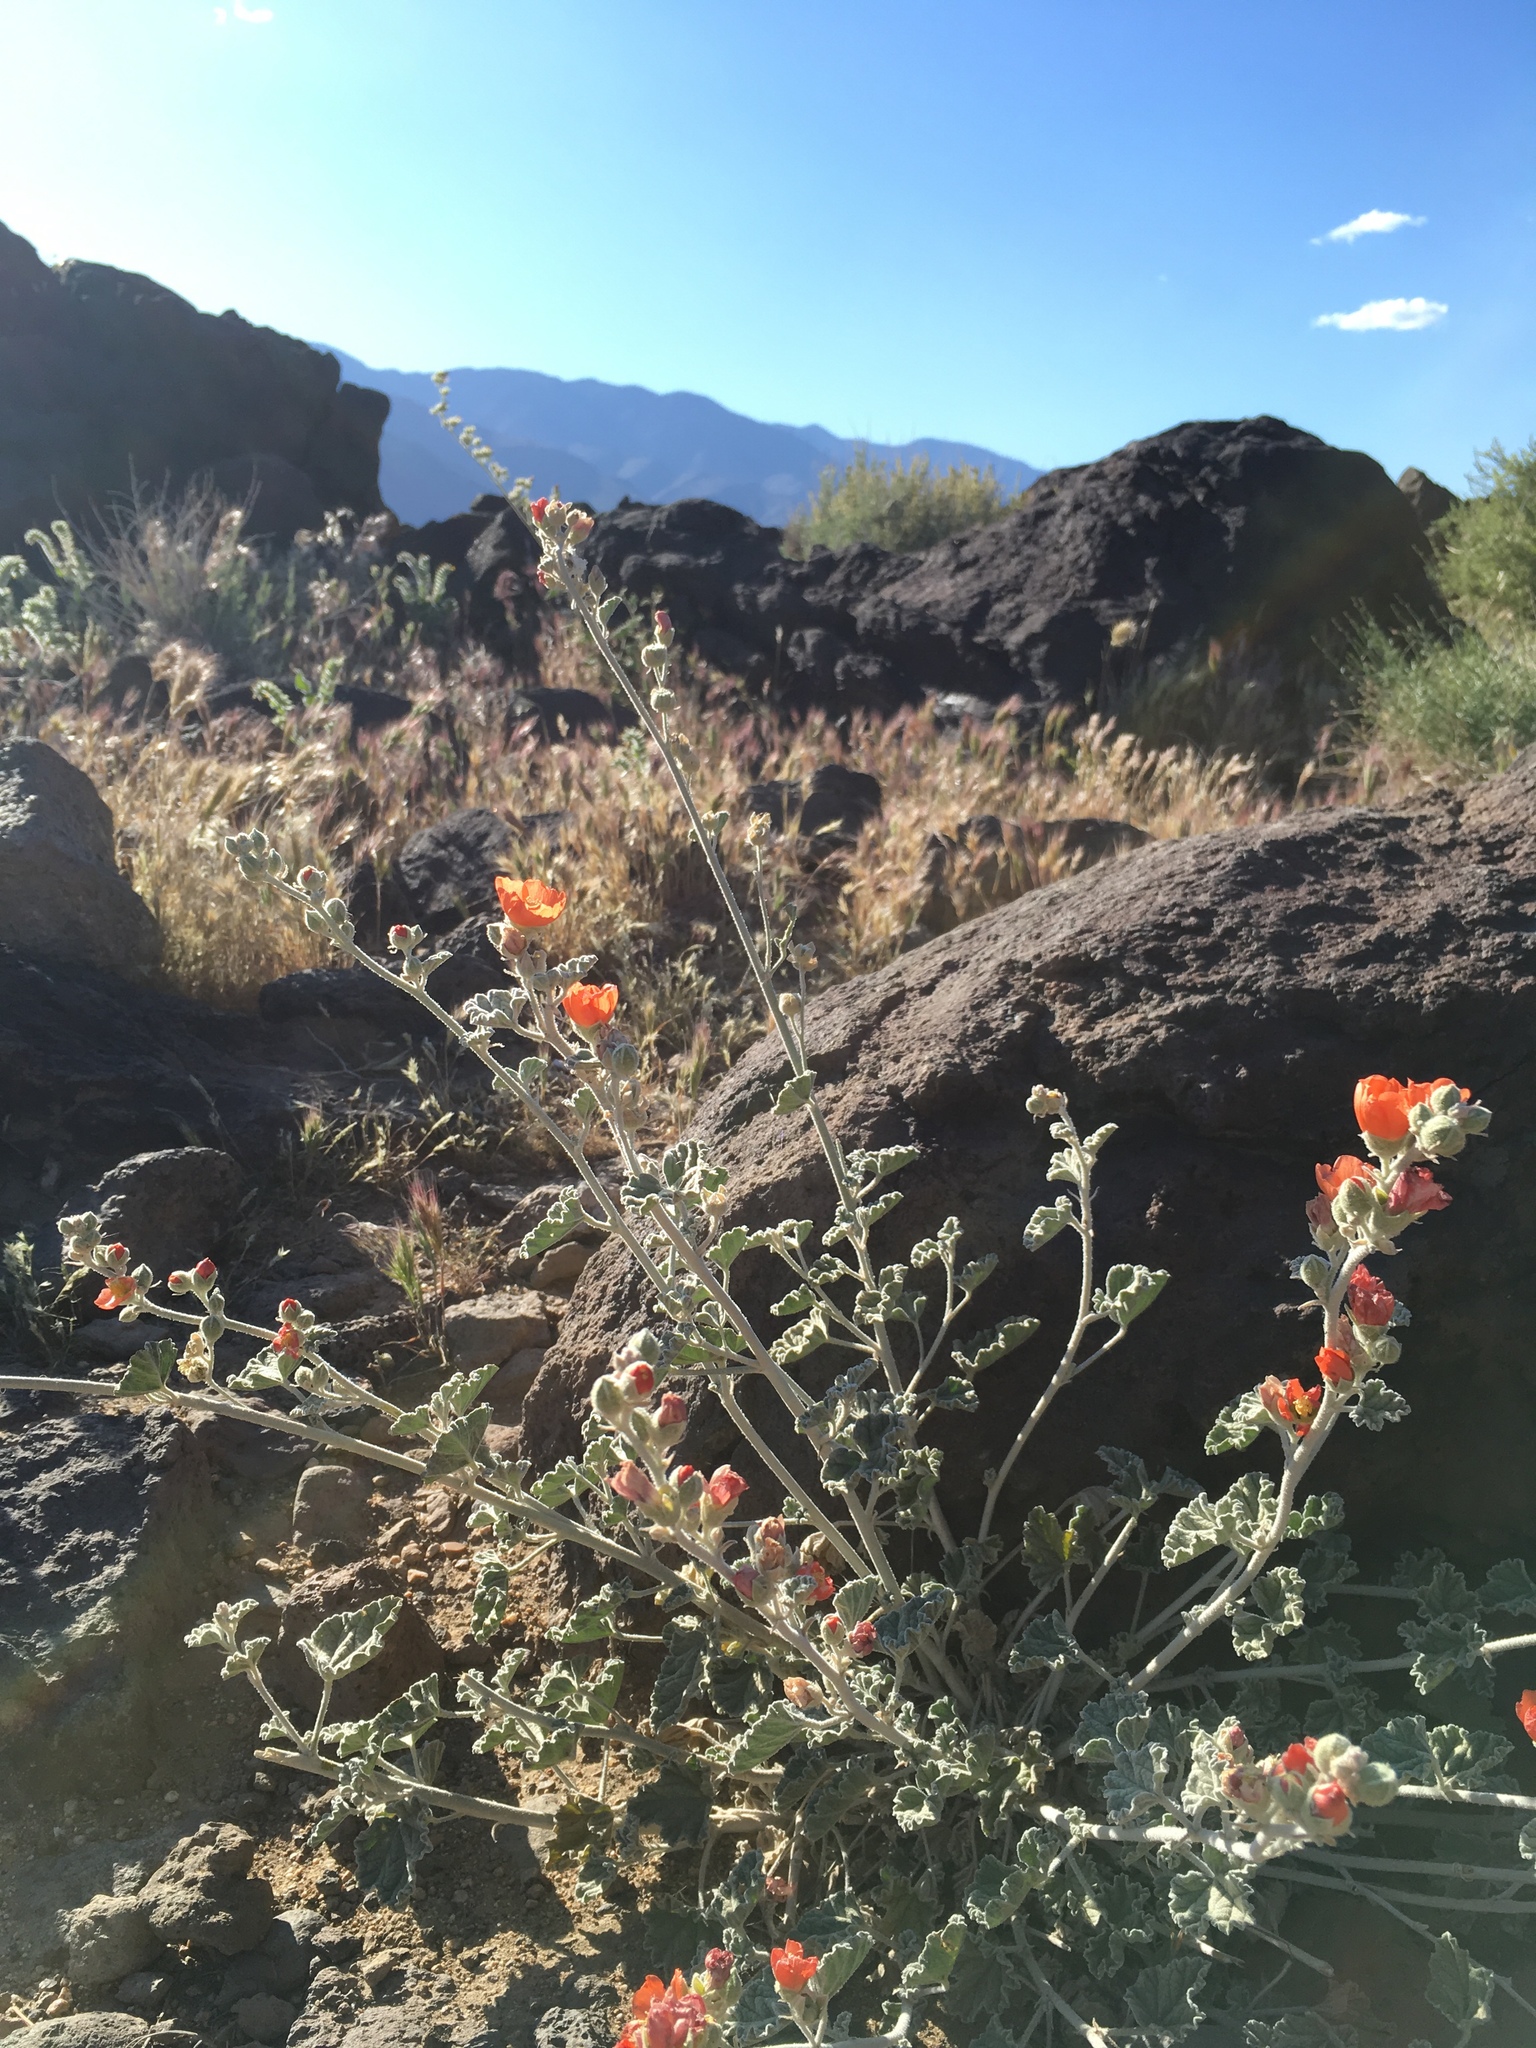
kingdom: Plantae
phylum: Tracheophyta
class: Magnoliopsida
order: Malvales
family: Malvaceae
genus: Sphaeralcea
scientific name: Sphaeralcea ambigua
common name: Apricot globe-mallow
